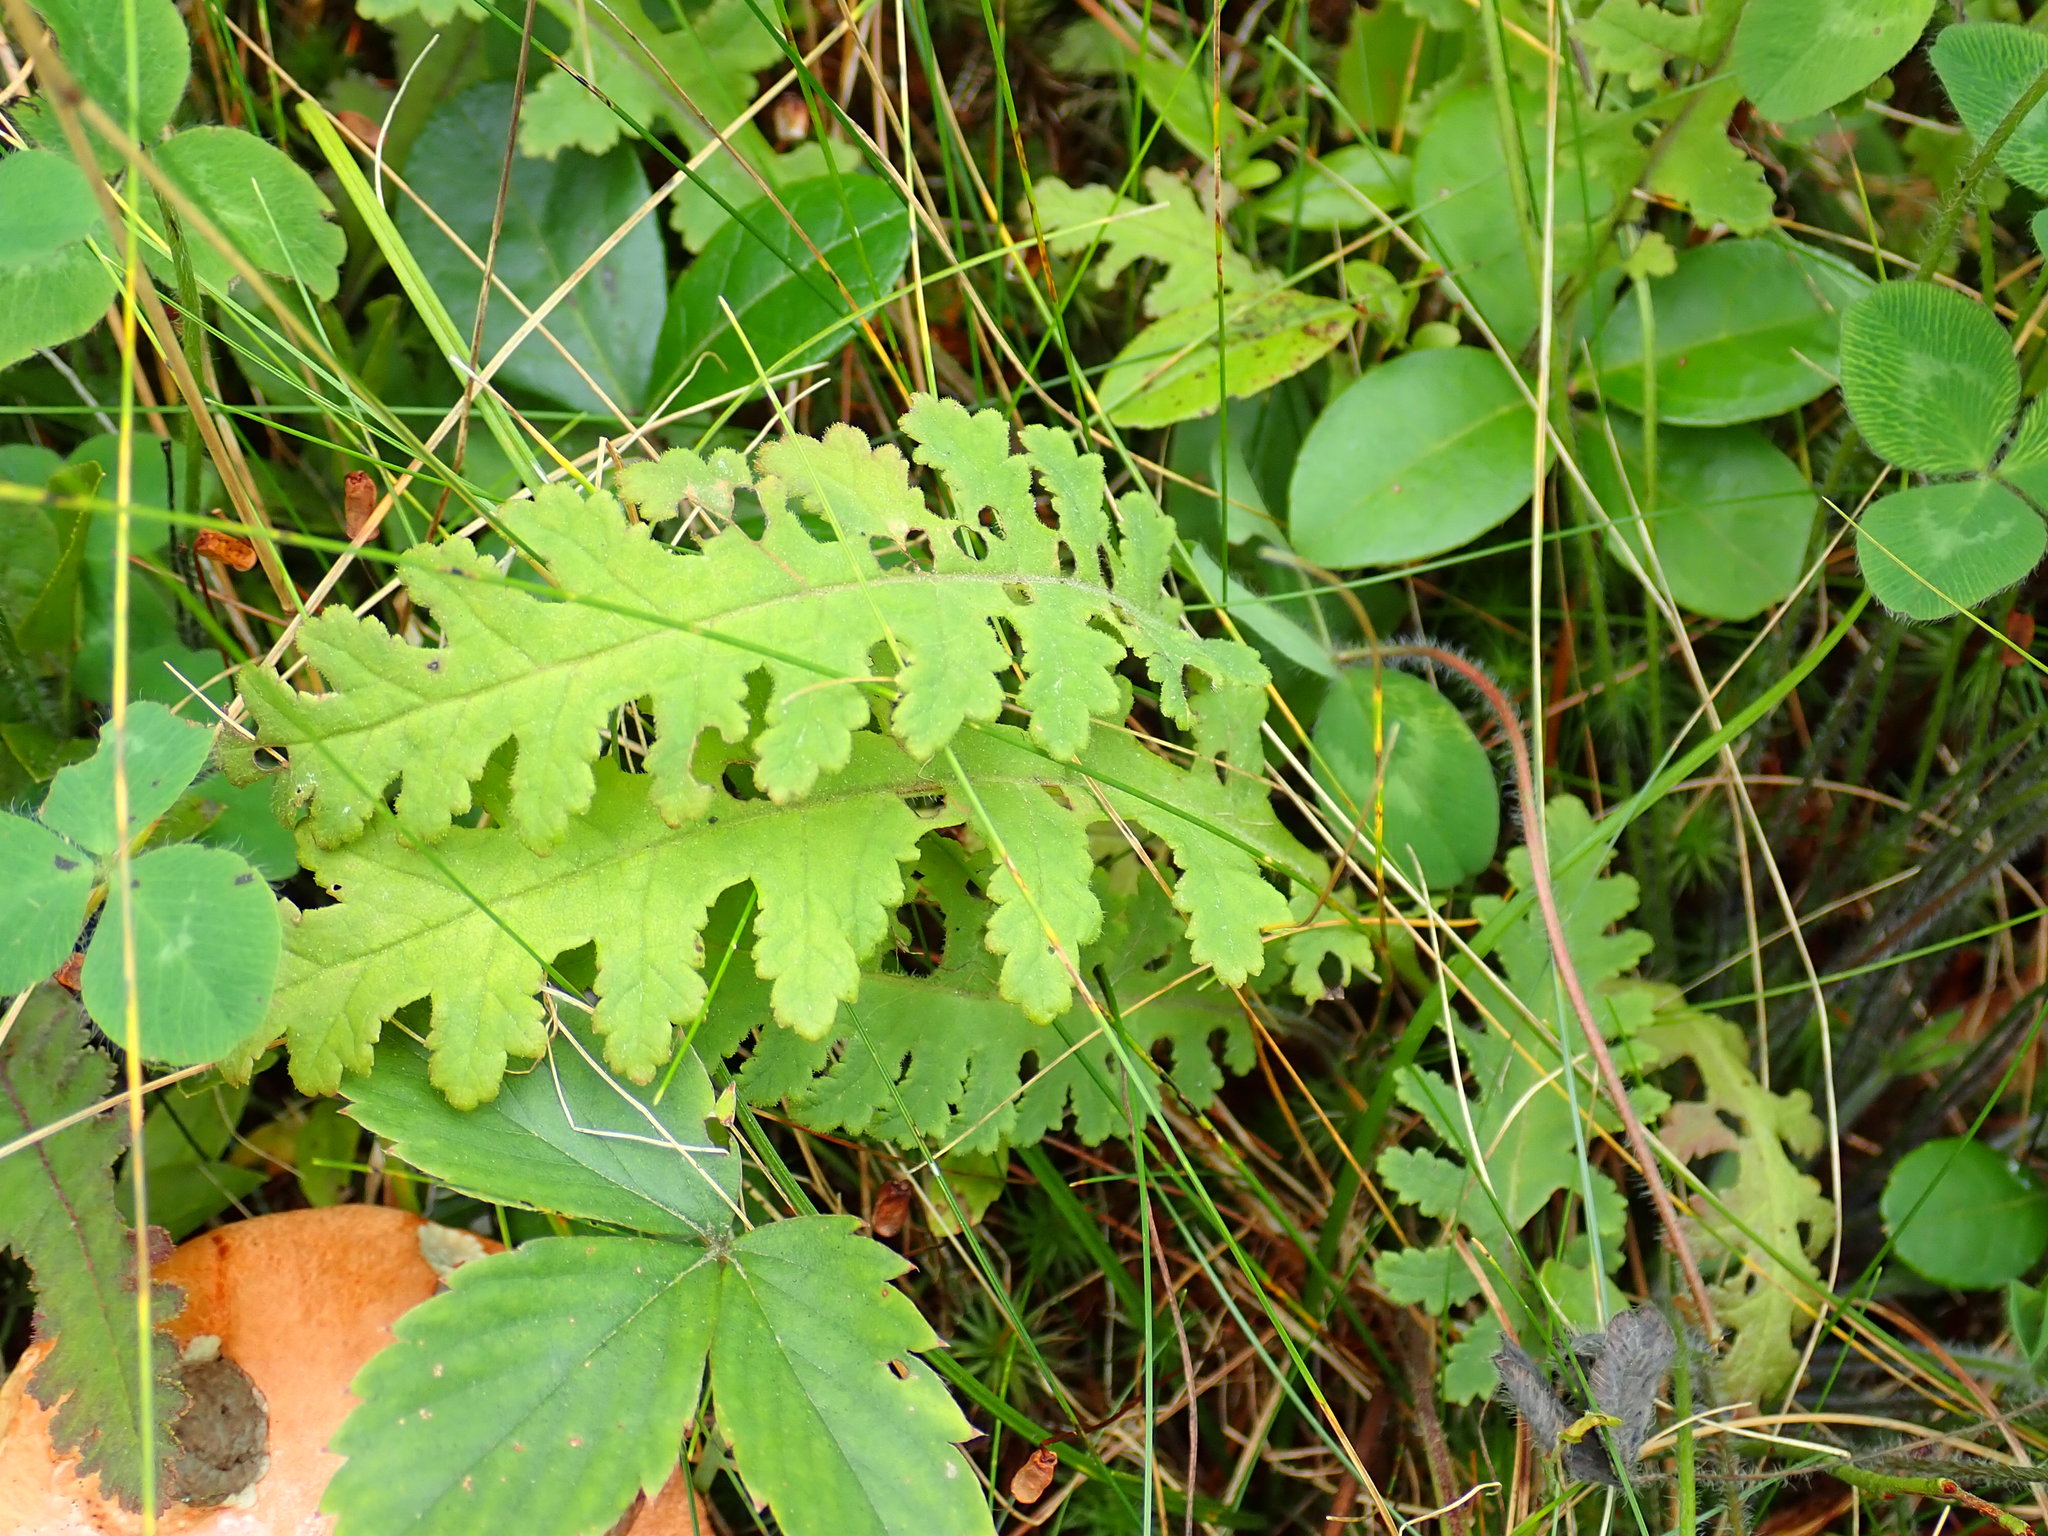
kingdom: Plantae
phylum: Tracheophyta
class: Magnoliopsida
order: Lamiales
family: Orobanchaceae
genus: Pedicularis
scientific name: Pedicularis canadensis
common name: Early lousewort
